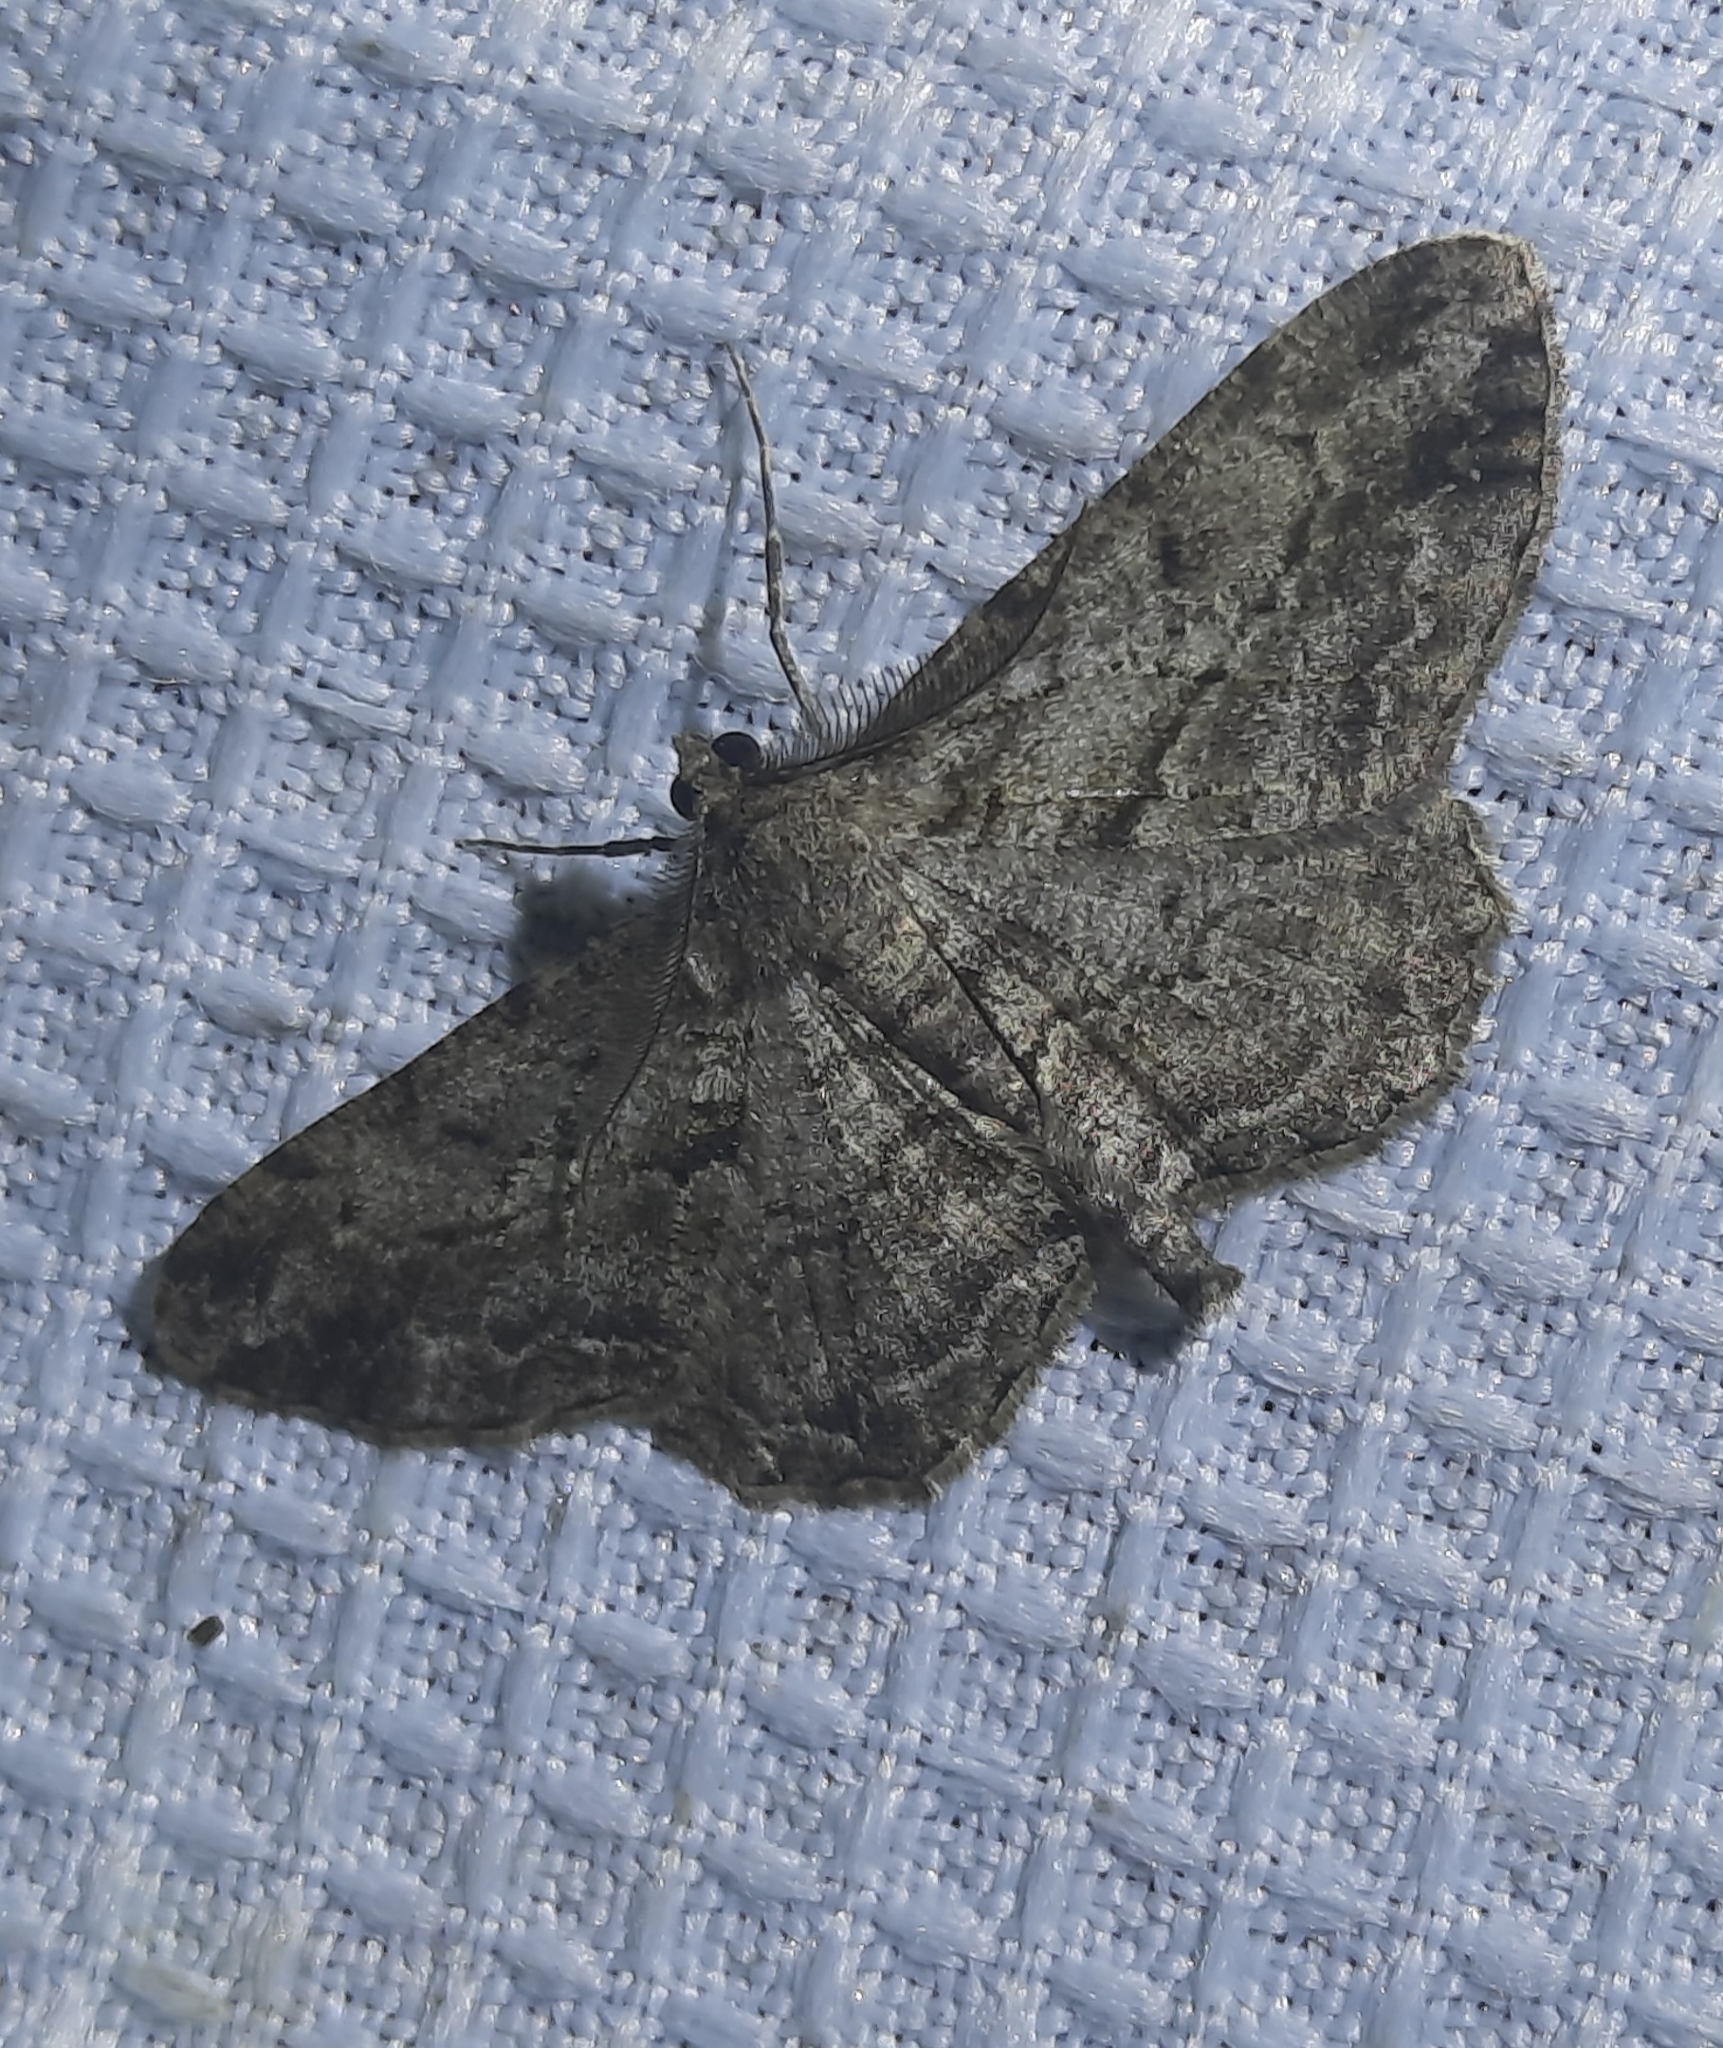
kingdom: Animalia
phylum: Arthropoda
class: Insecta
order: Lepidoptera
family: Geometridae
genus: Peribatodes
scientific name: Peribatodes rhomboidaria
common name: Willow beauty
